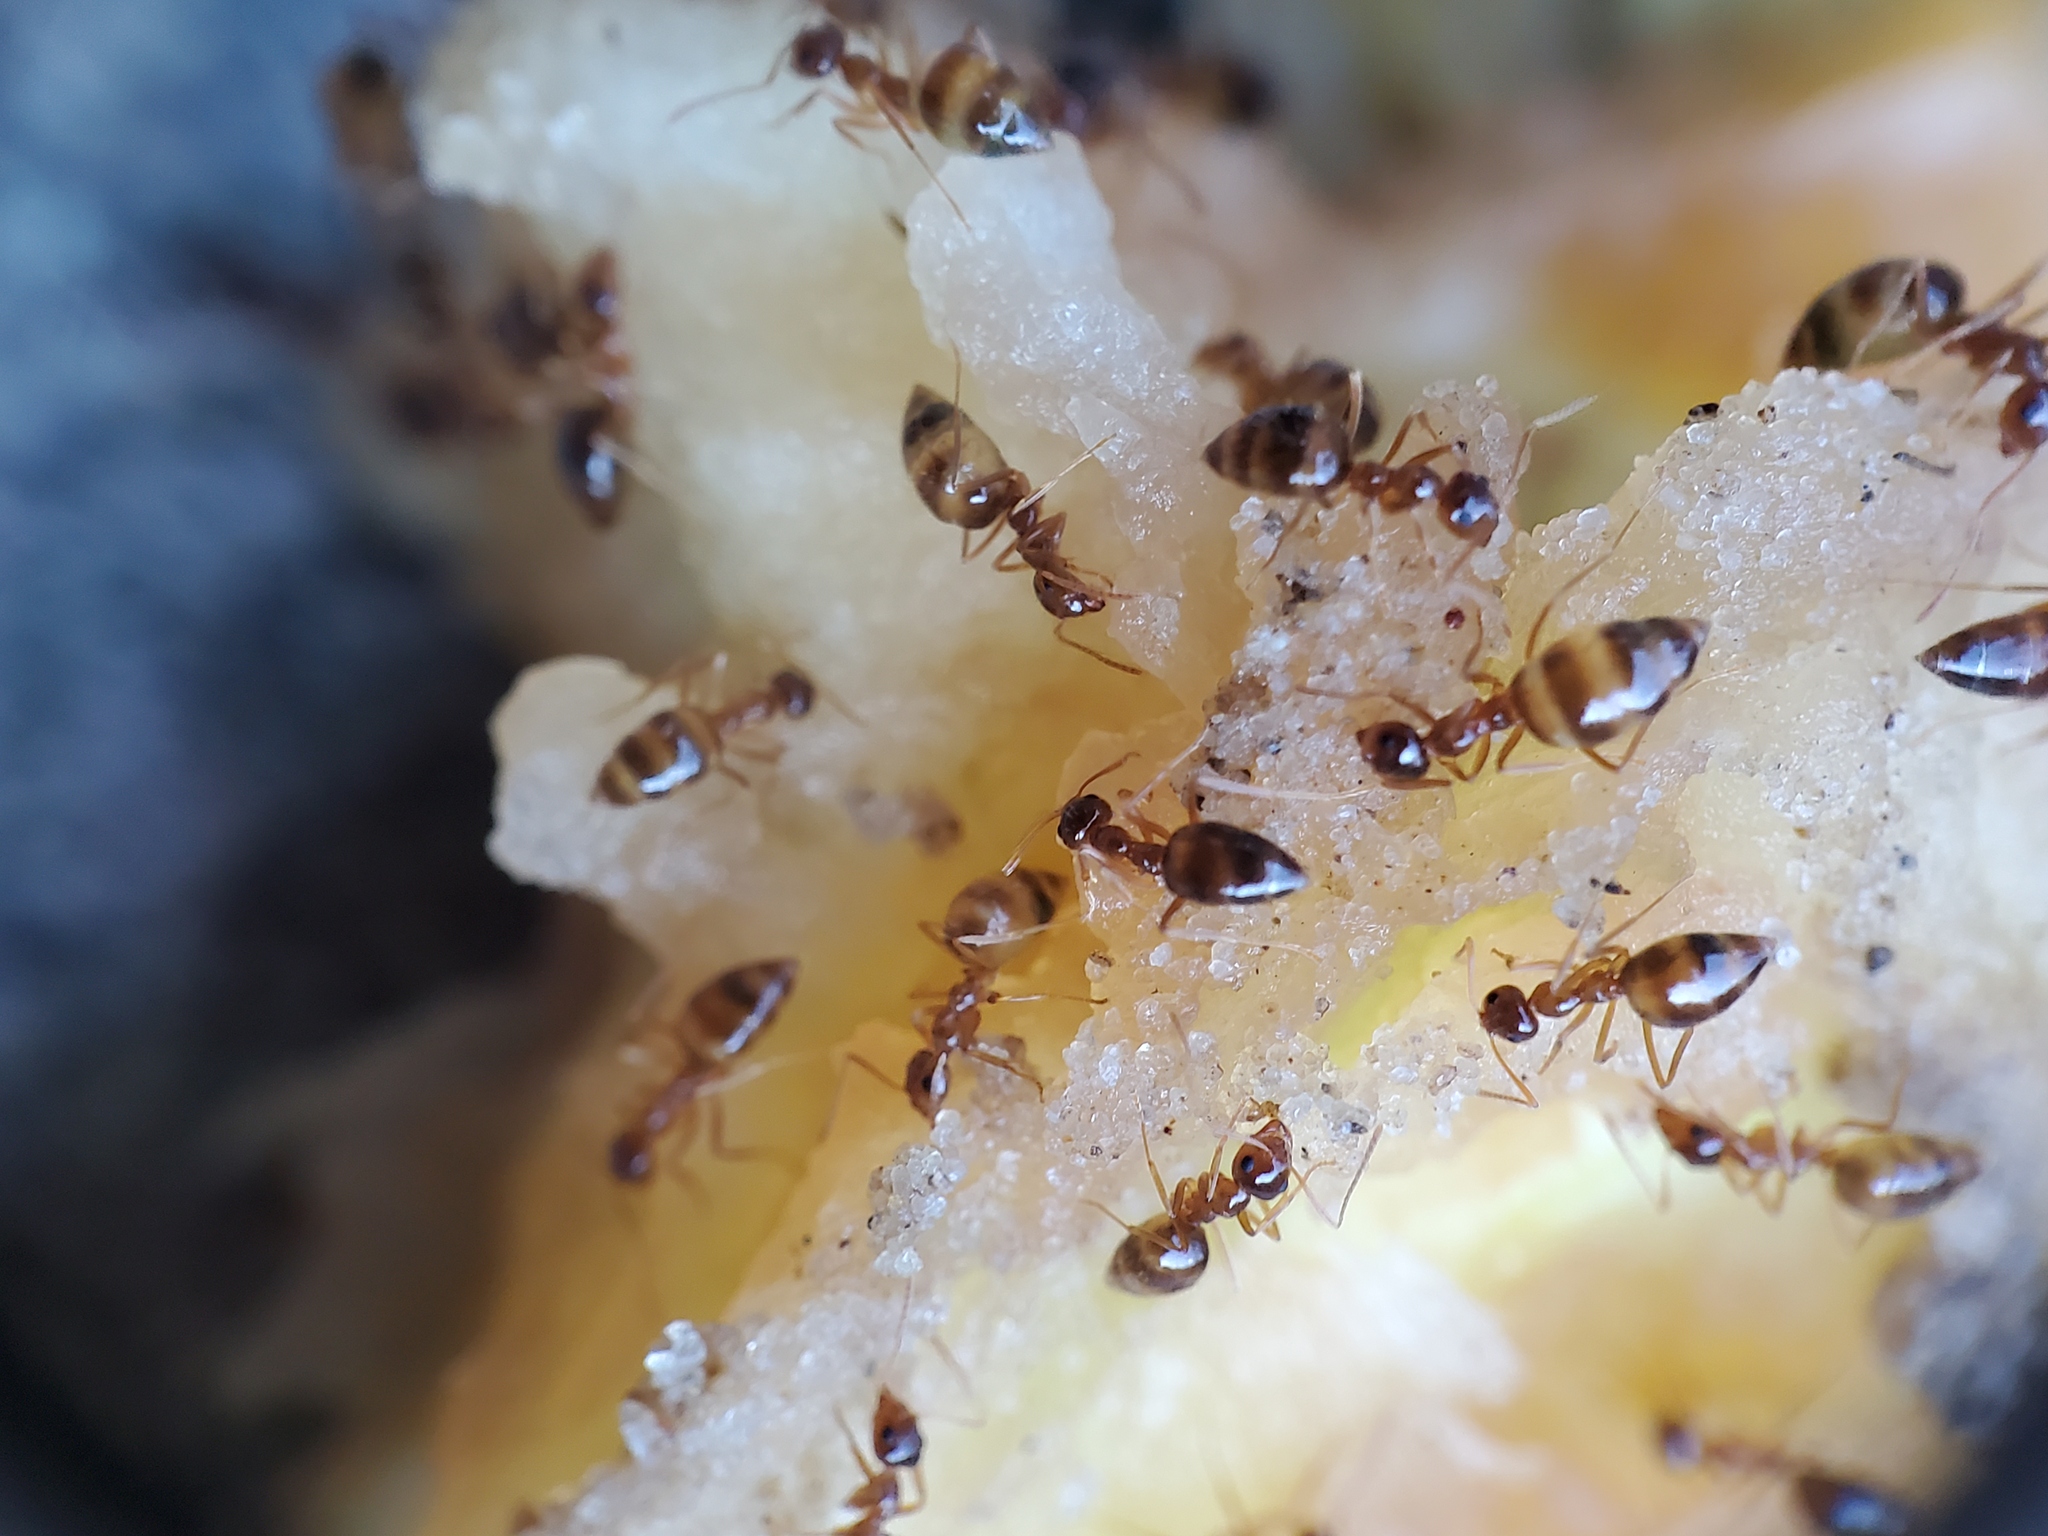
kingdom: Animalia
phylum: Arthropoda
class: Insecta
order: Hymenoptera
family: Formicidae
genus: Prenolepis
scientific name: Prenolepis imparis
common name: Small honey ant
